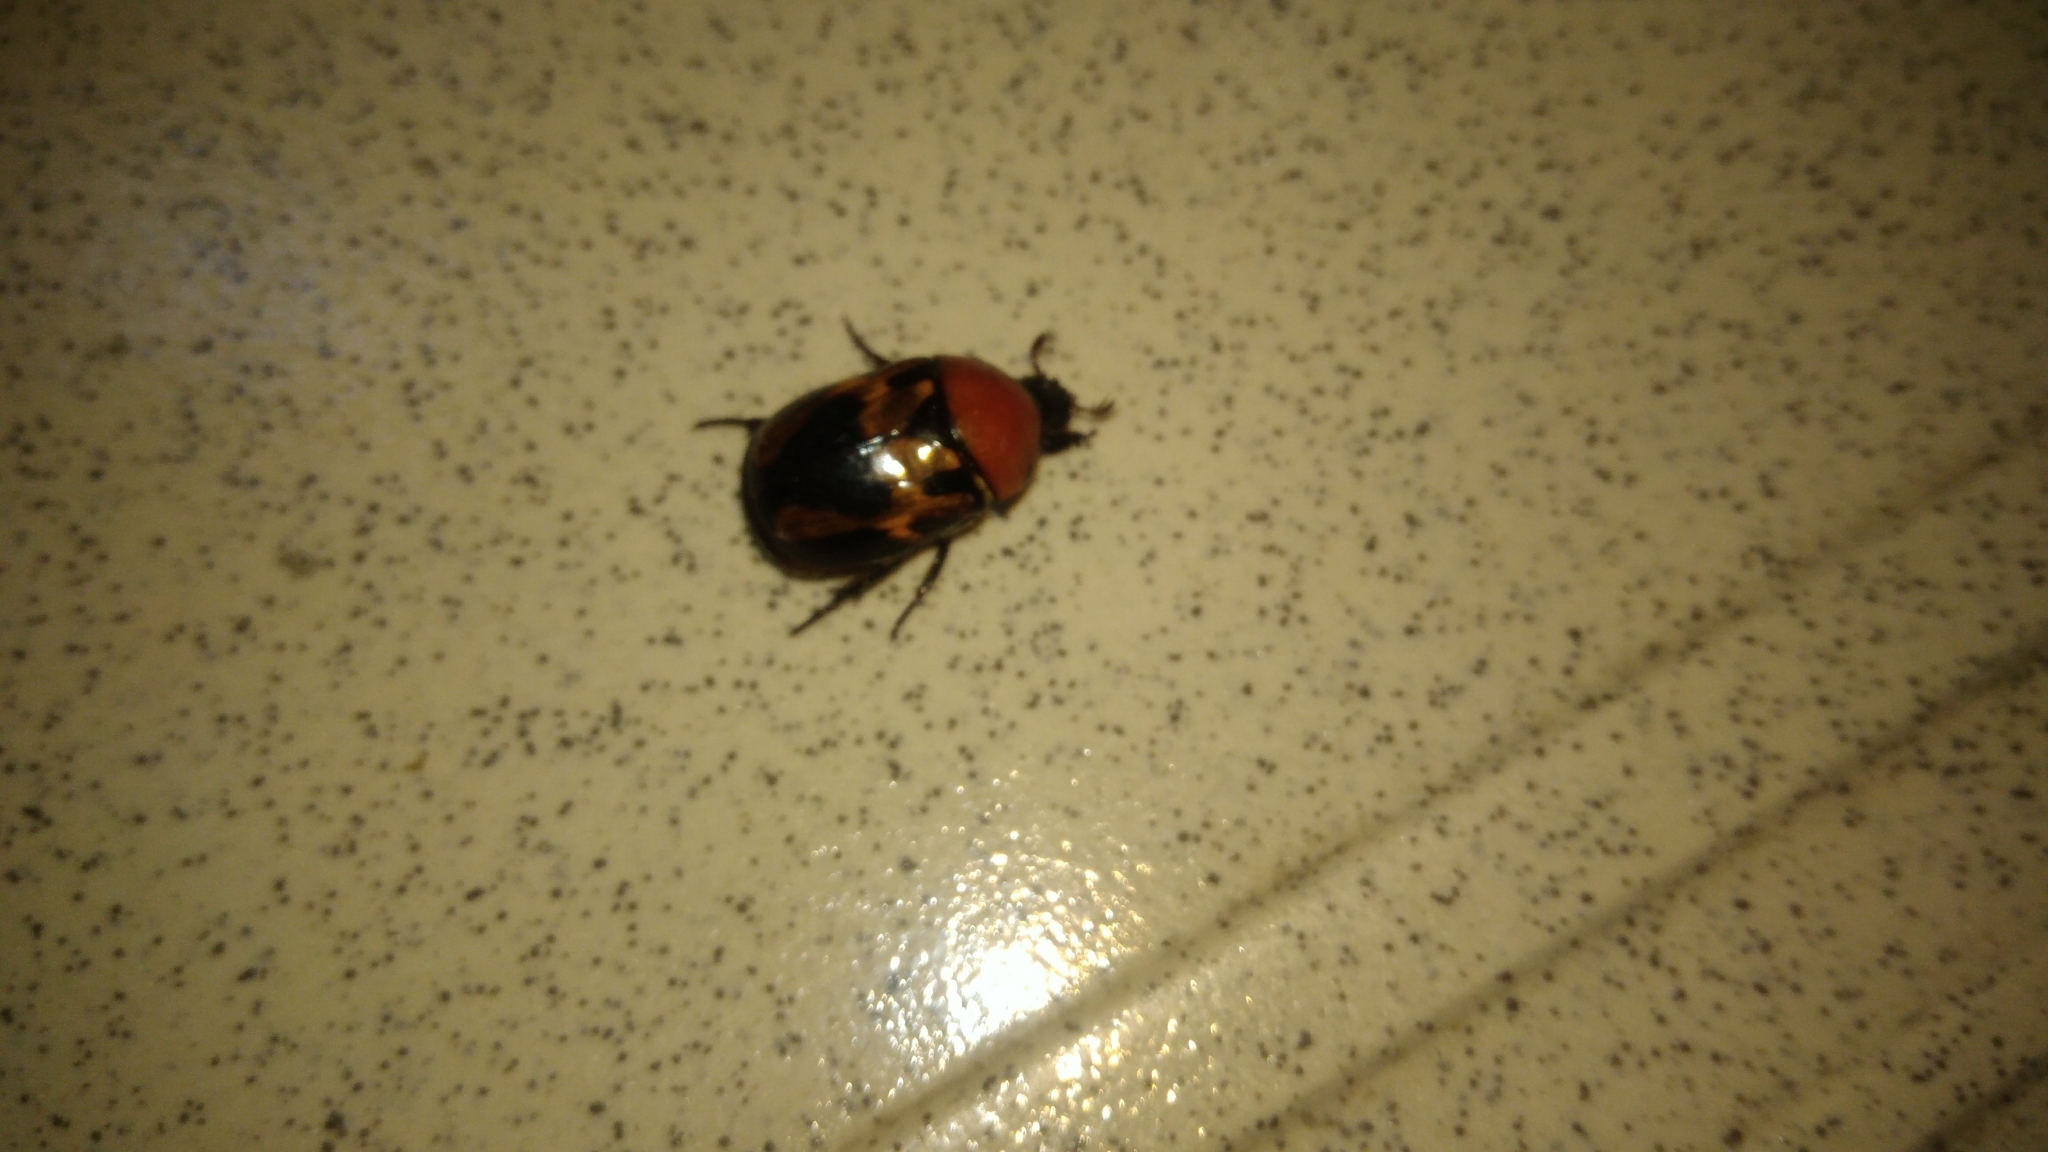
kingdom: Animalia
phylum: Arthropoda
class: Insecta
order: Coleoptera
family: Scarabaeidae
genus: Parastasia
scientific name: Parastasia canaliculata
